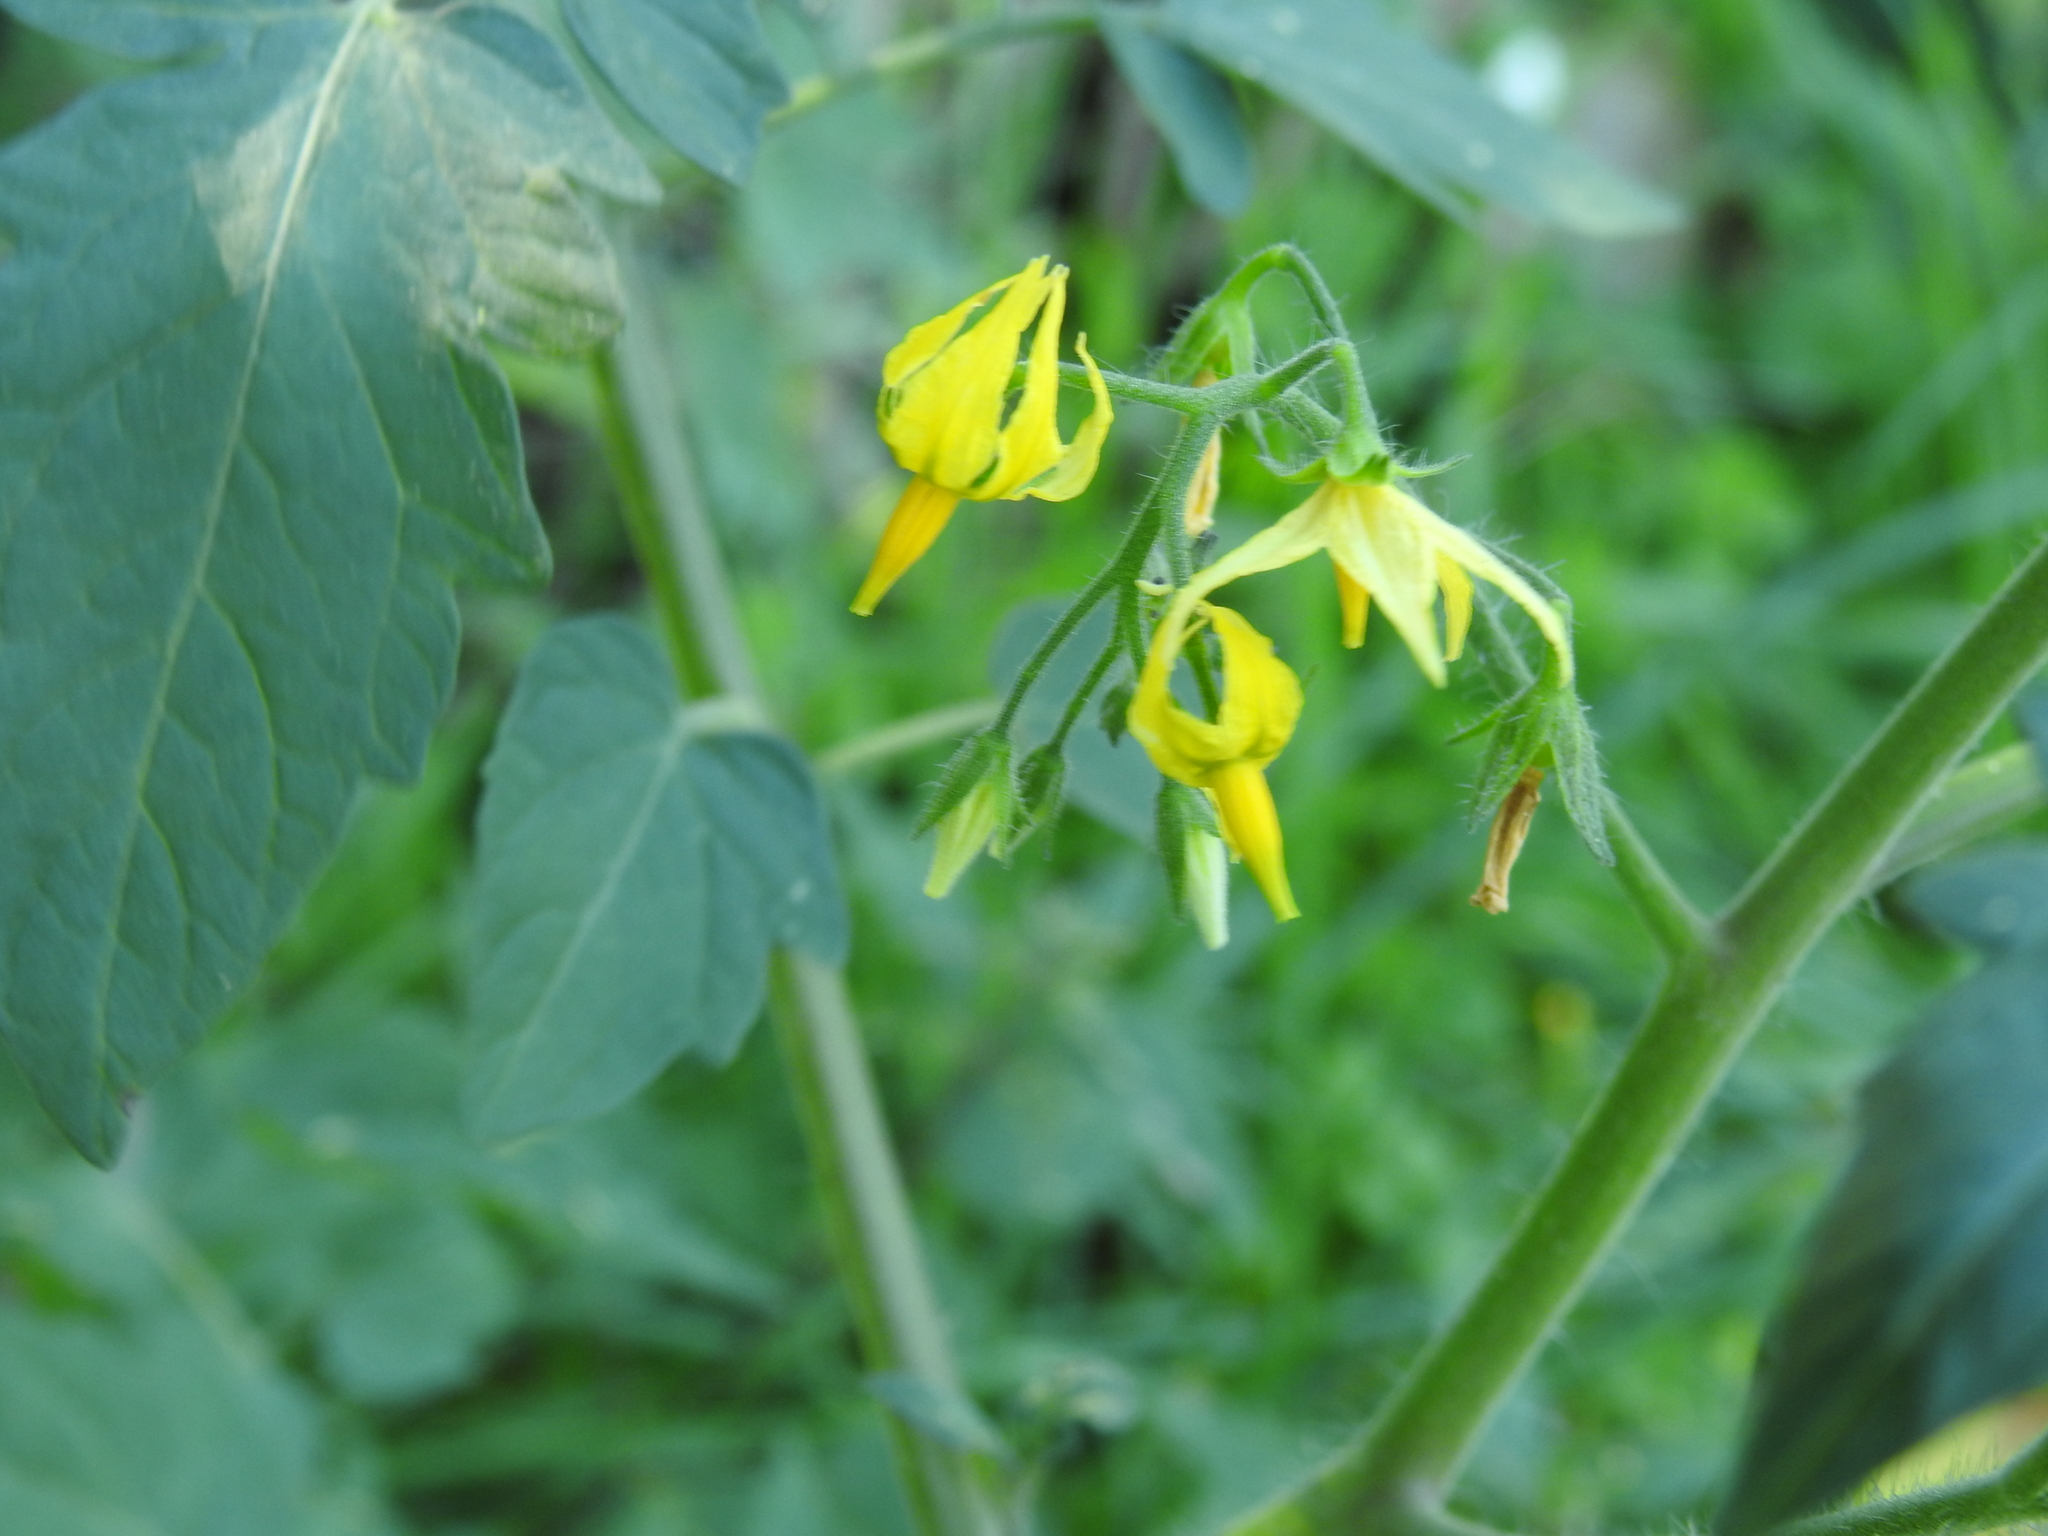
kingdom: Plantae
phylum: Tracheophyta
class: Magnoliopsida
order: Solanales
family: Solanaceae
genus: Solanum
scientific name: Solanum lycopersicum
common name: Garden tomato
